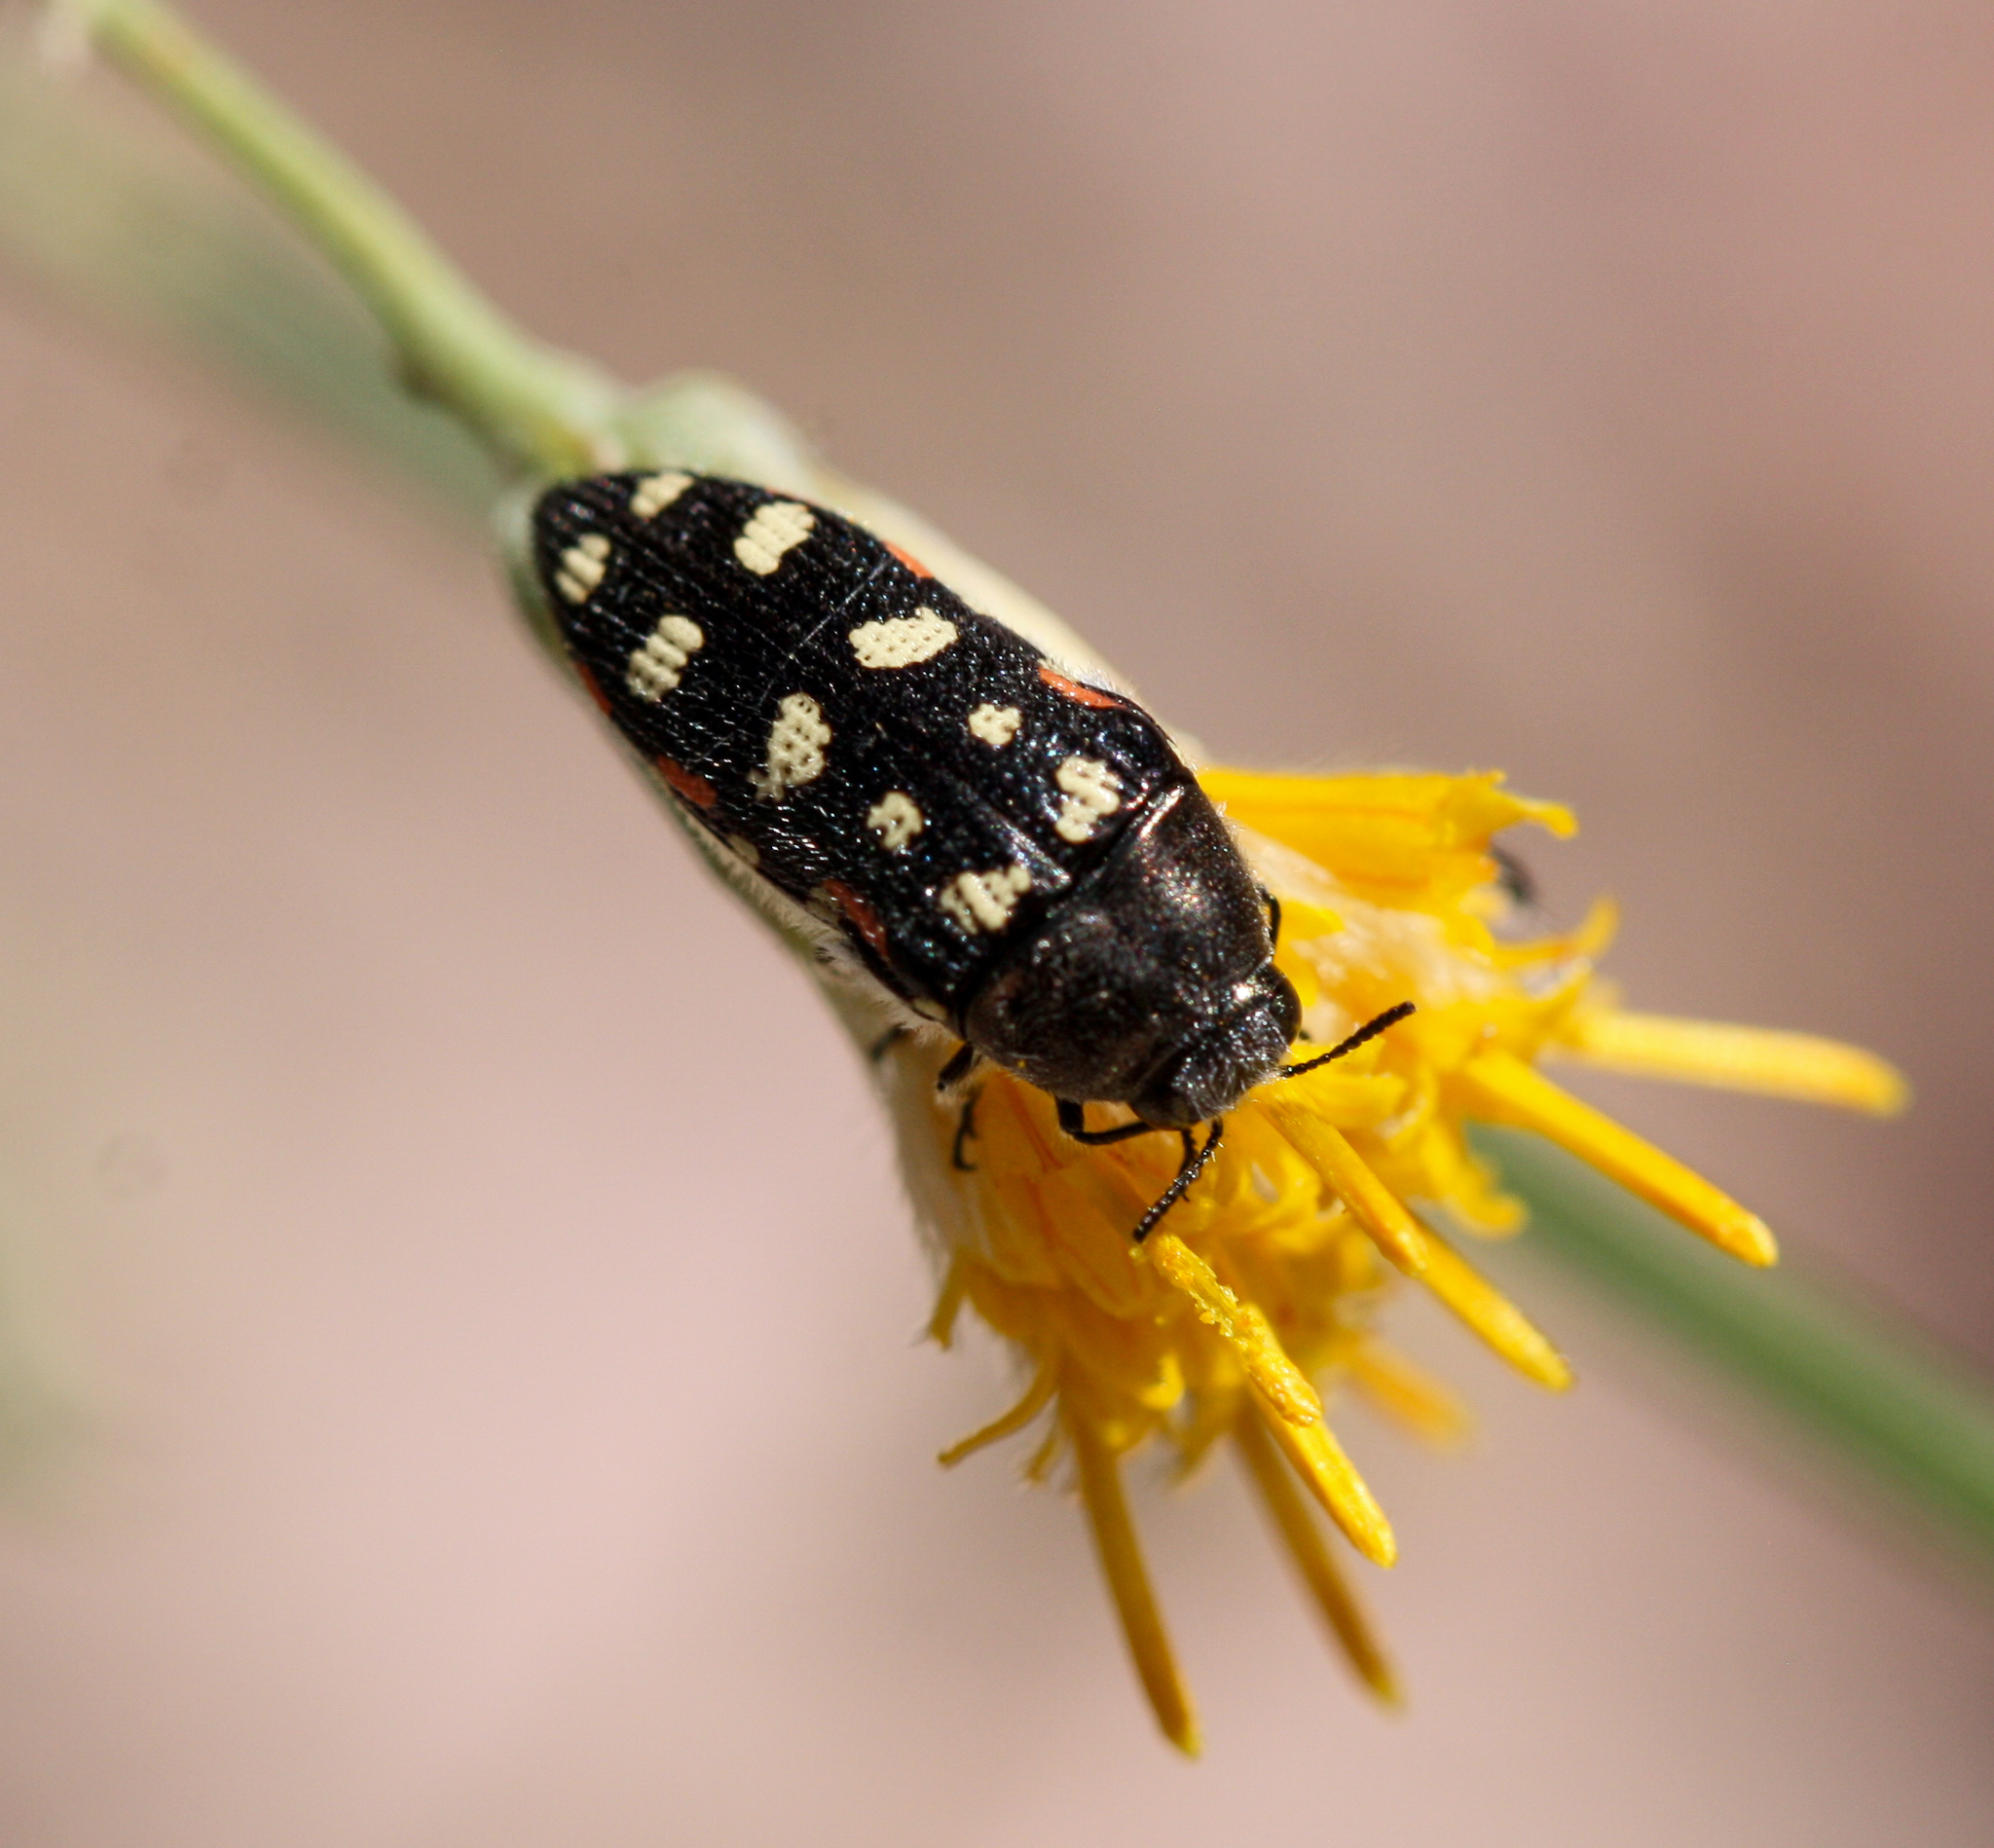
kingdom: Animalia
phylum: Arthropoda
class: Insecta
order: Coleoptera
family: Buprestidae
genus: Acmaeodera
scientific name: Acmaeodera gibbula
